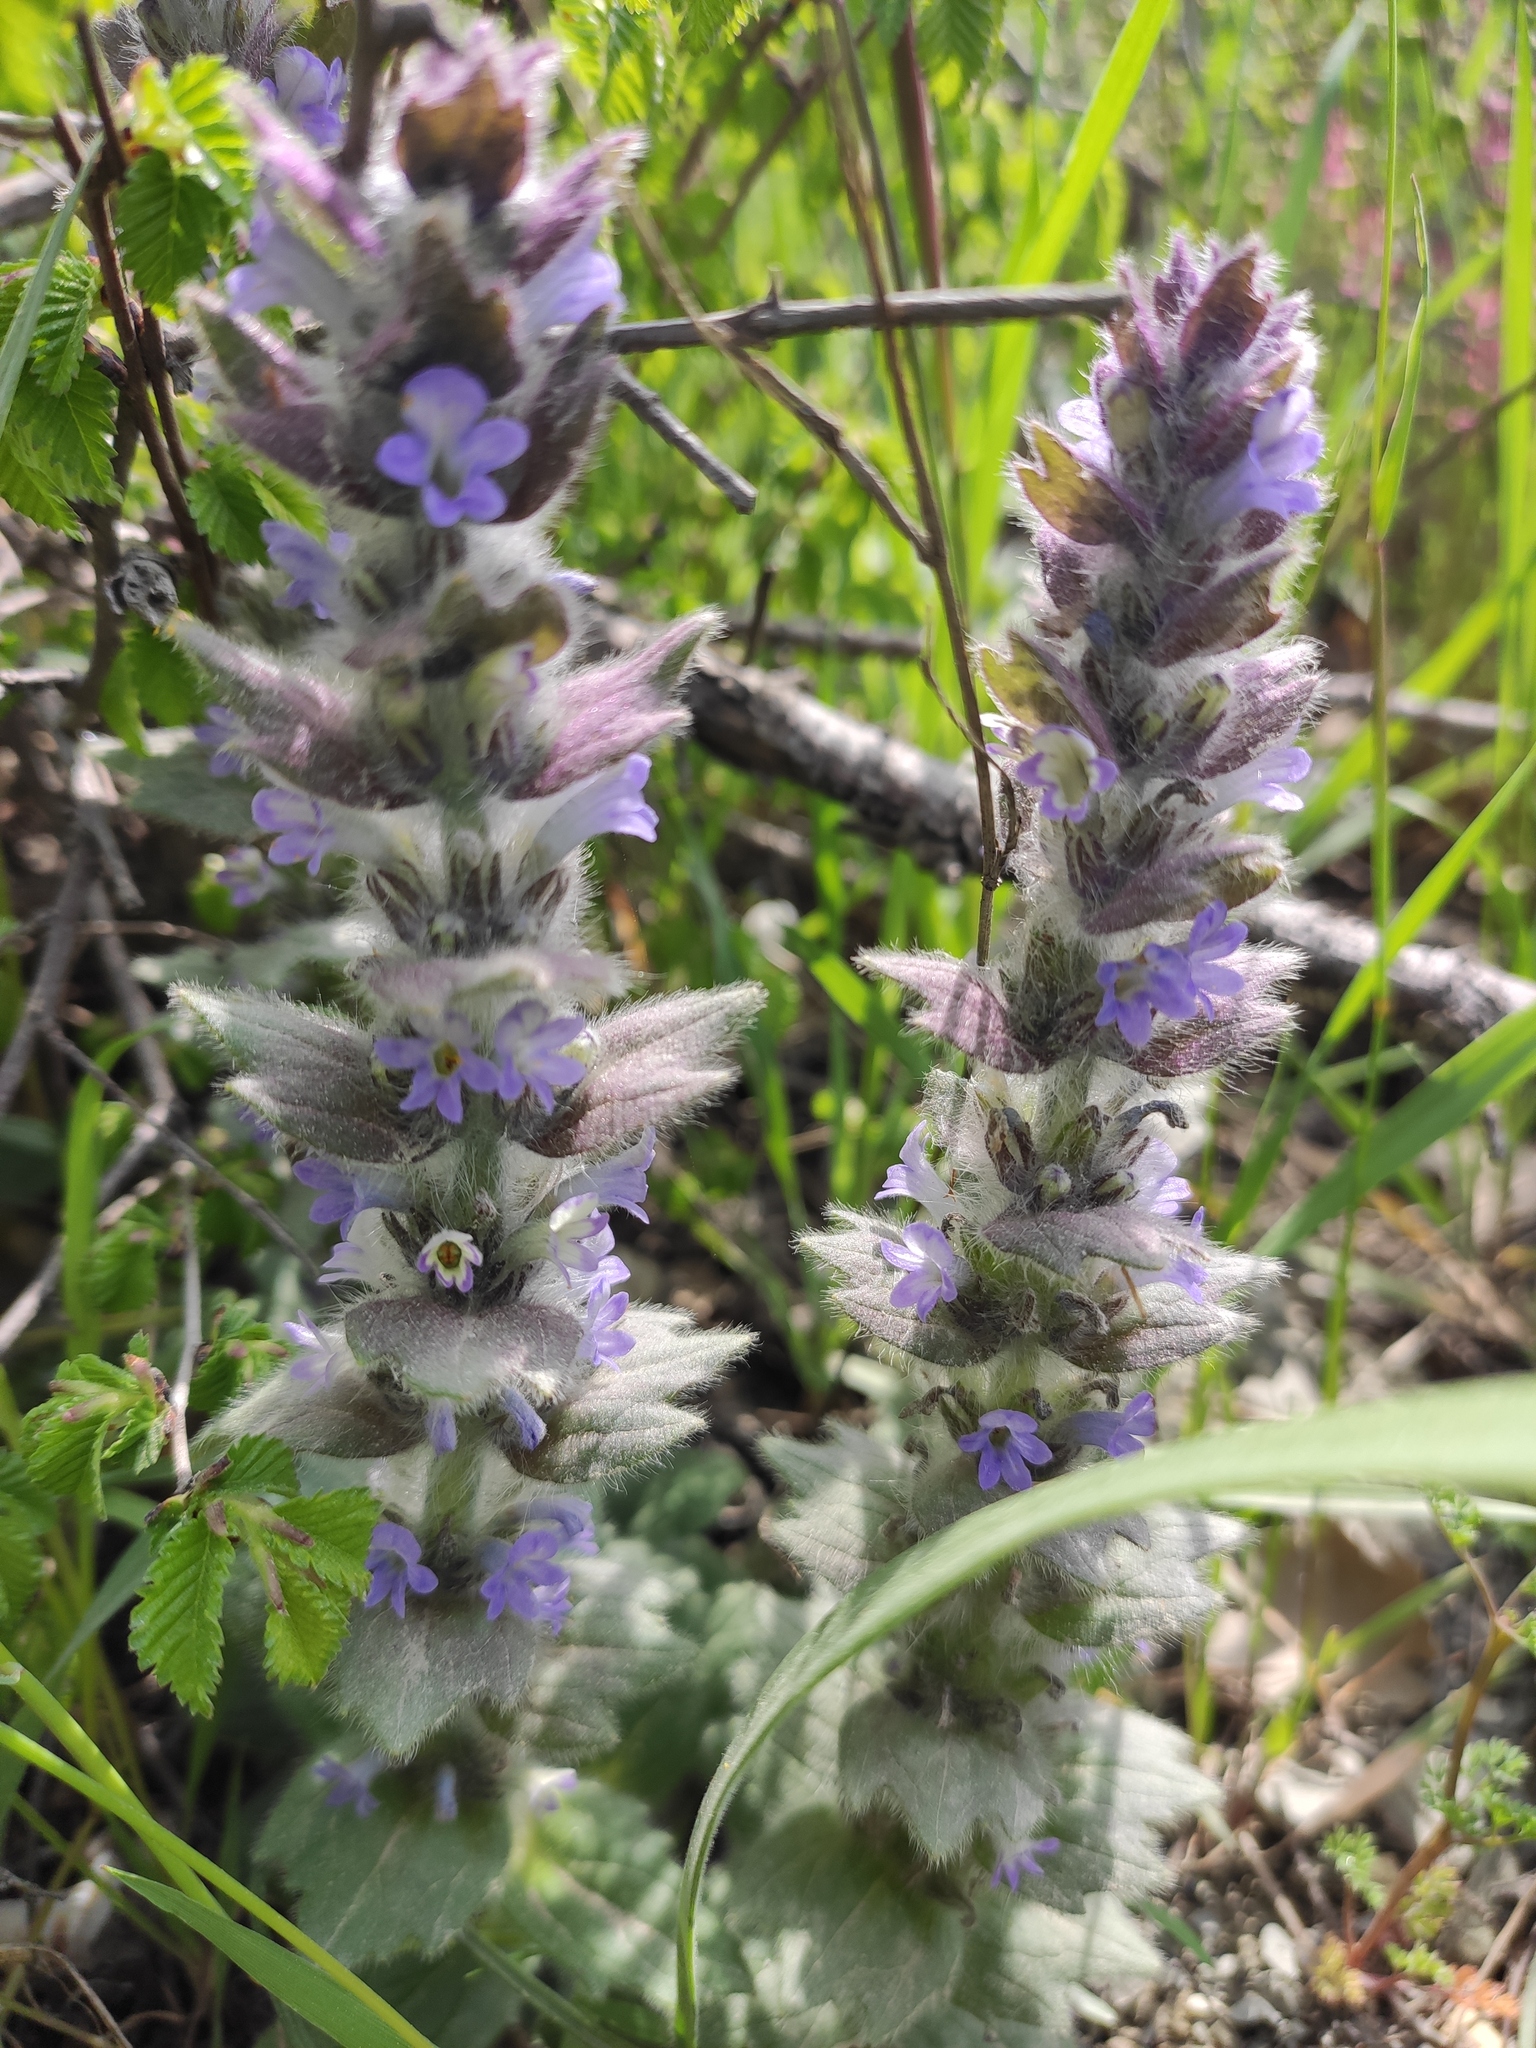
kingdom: Plantae
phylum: Tracheophyta
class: Magnoliopsida
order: Lamiales
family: Lamiaceae
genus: Ajuga
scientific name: Ajuga orientalis
